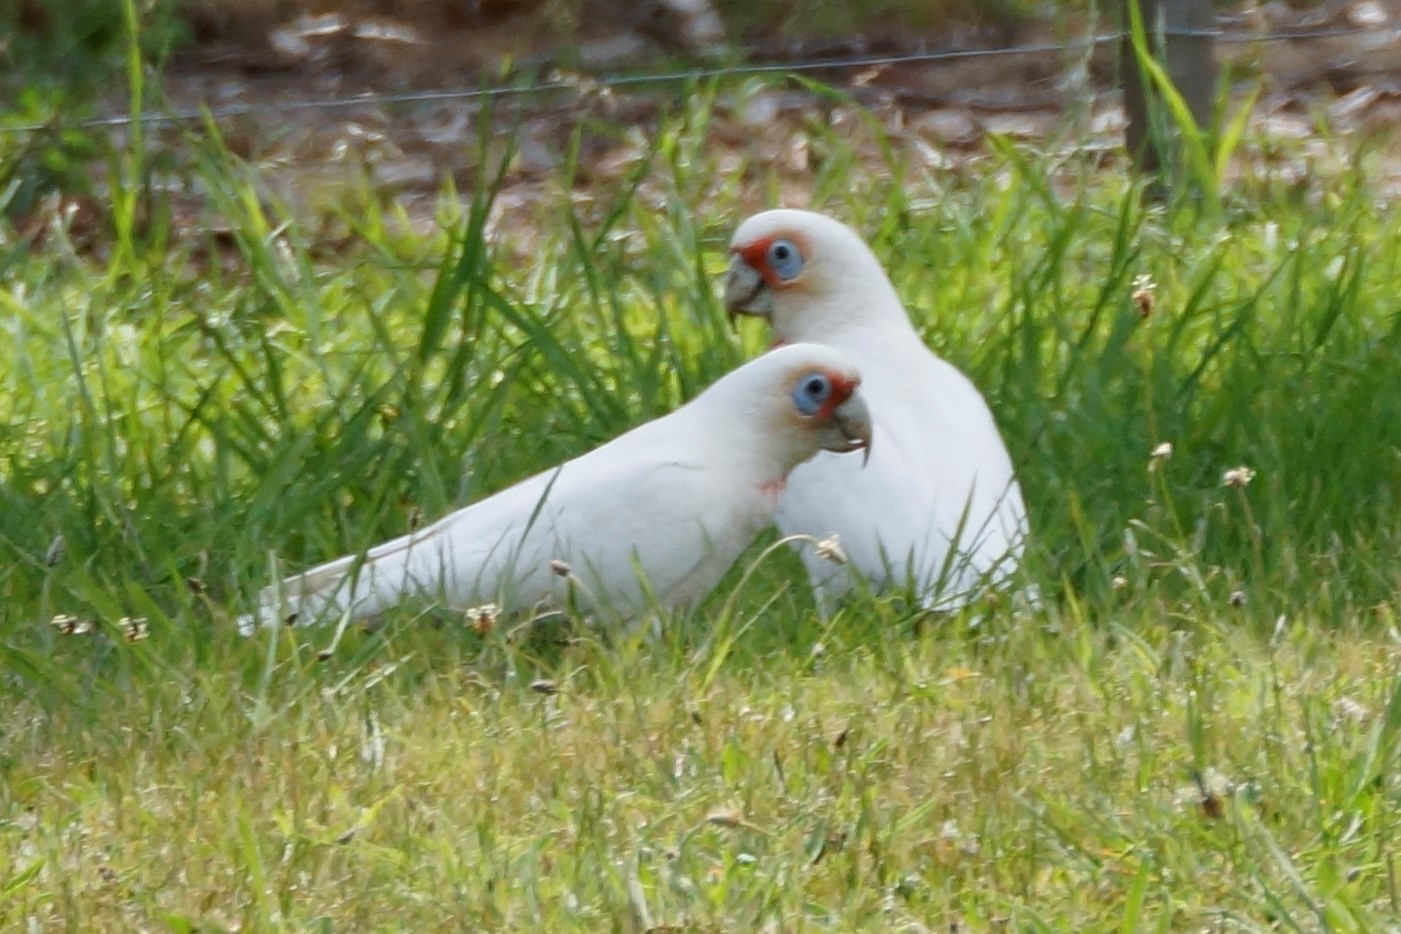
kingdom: Animalia
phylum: Chordata
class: Aves
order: Psittaciformes
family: Psittacidae
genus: Cacatua
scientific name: Cacatua tenuirostris
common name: Long-billed corella
